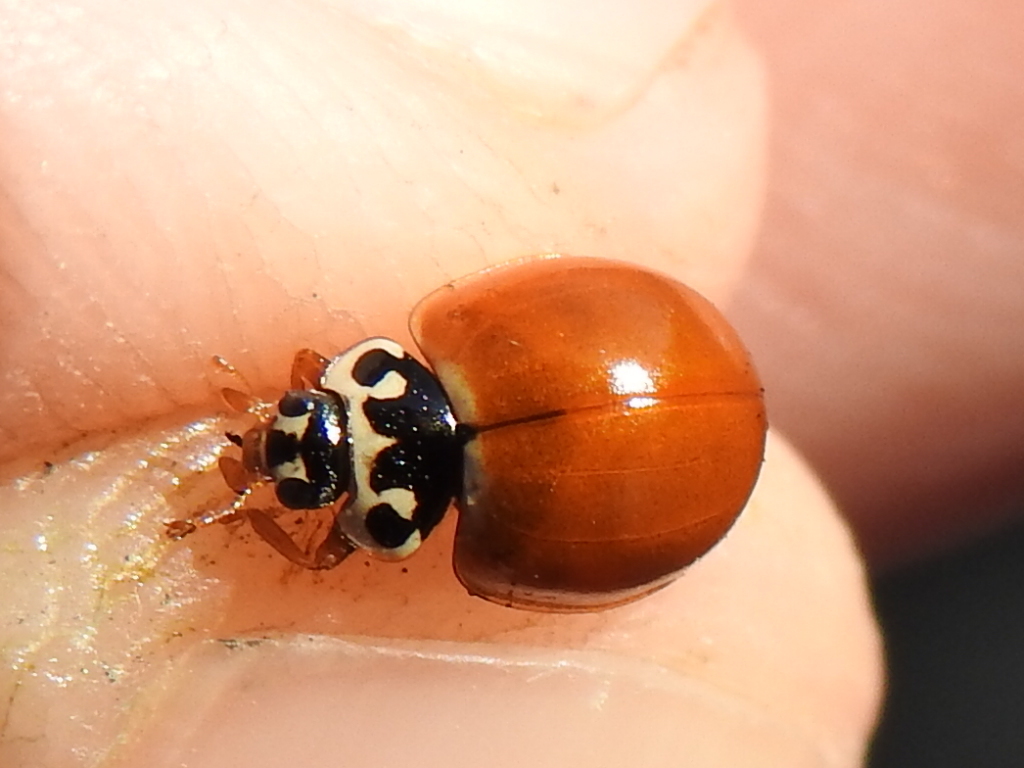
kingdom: Animalia
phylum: Arthropoda
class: Insecta
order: Coleoptera
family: Coccinellidae
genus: Cycloneda
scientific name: Cycloneda munda
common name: Polished lady beetle
